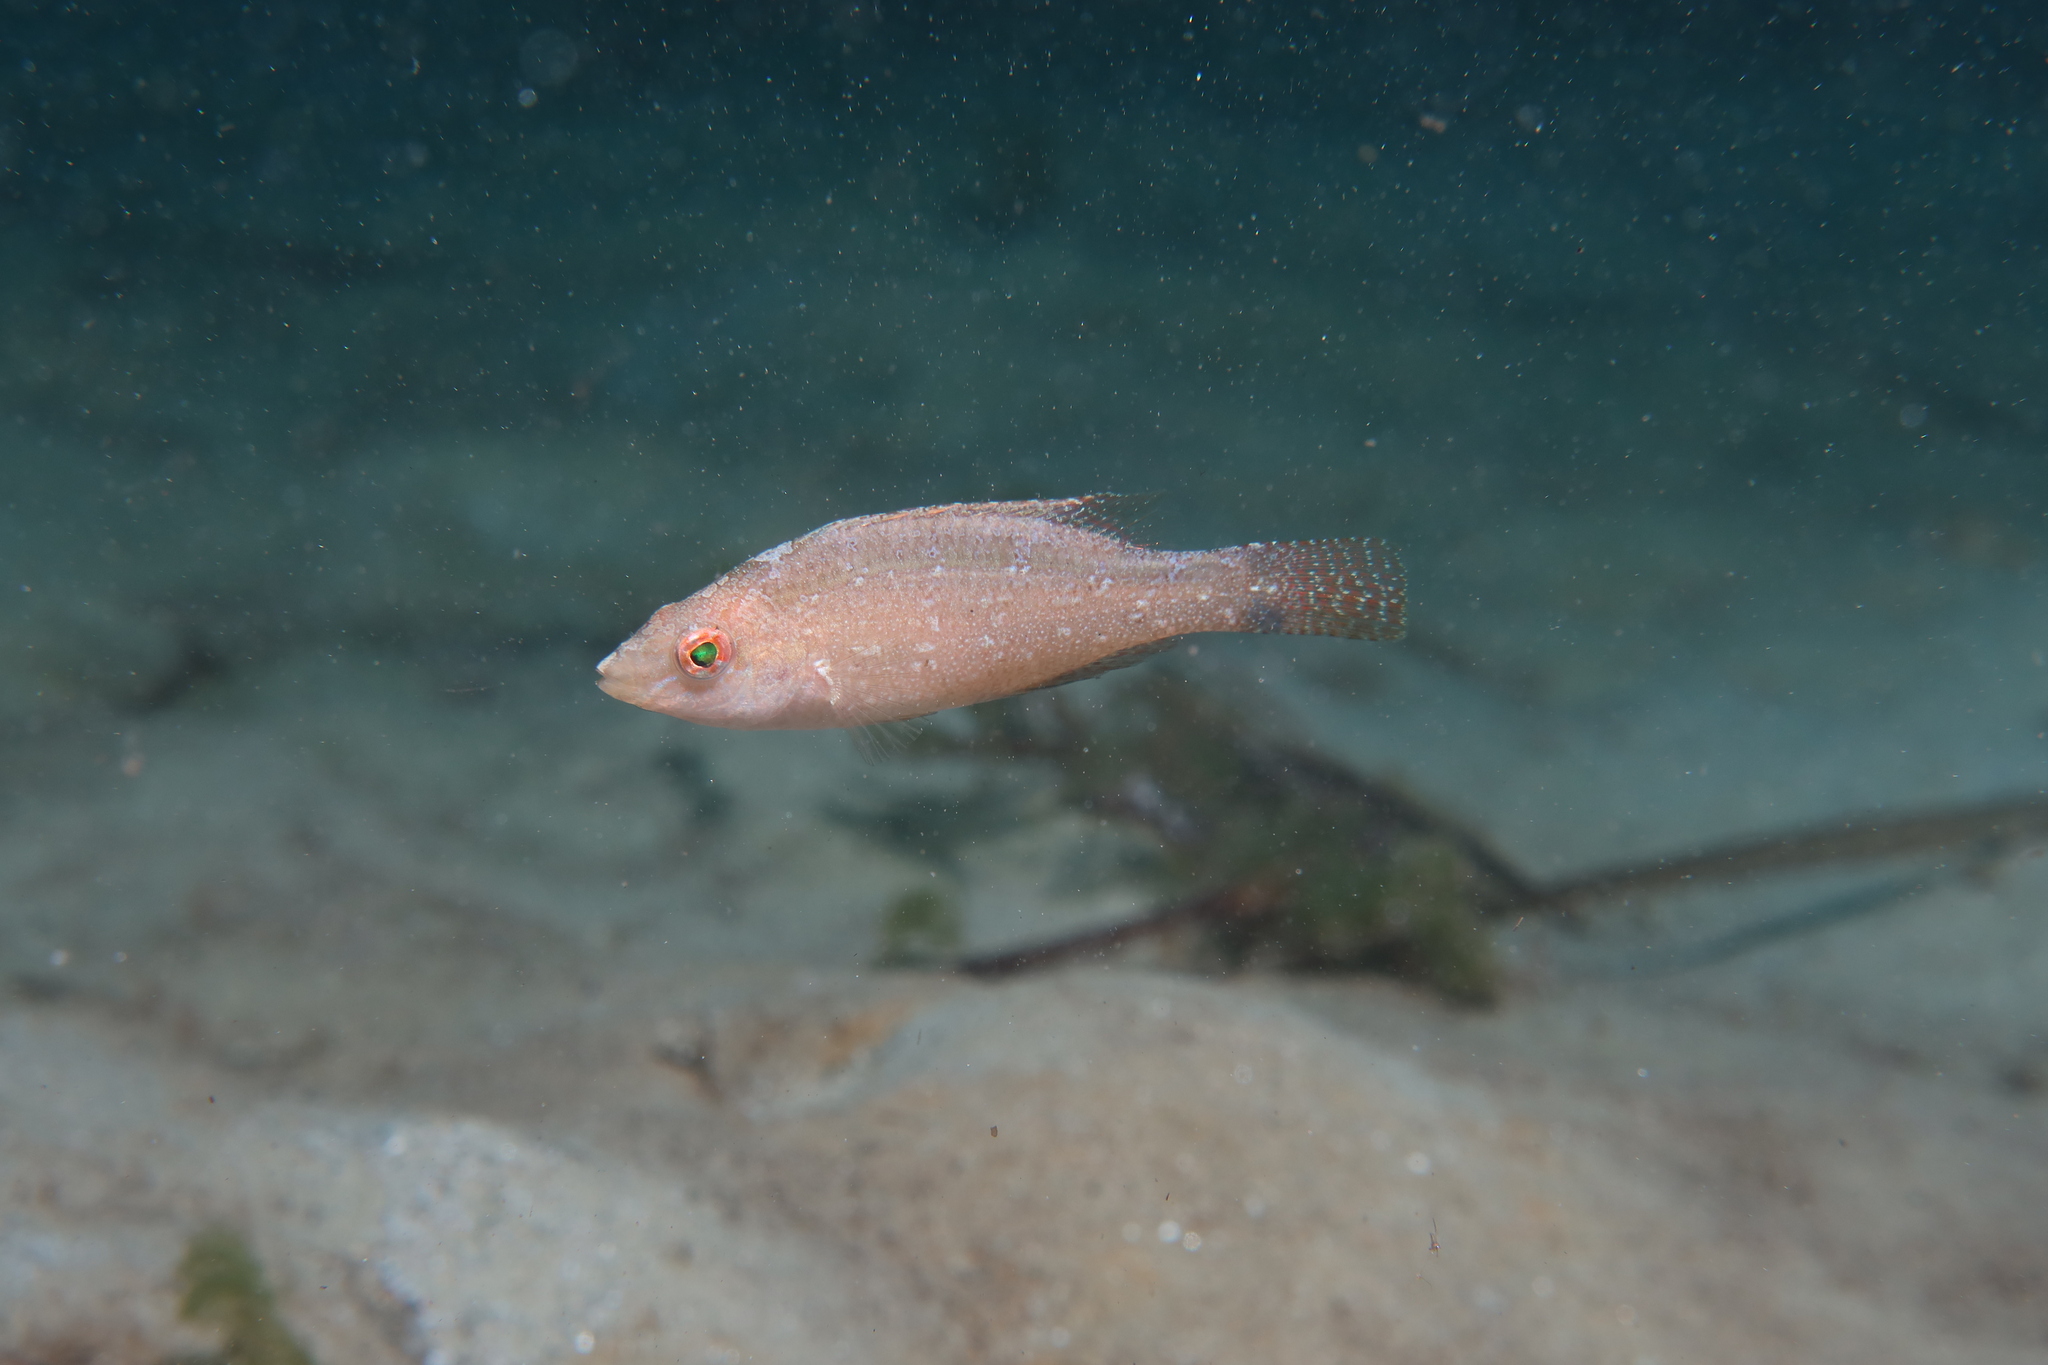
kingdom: Animalia
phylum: Chordata
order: Perciformes
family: Labridae
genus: Symphodus
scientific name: Symphodus cinereus
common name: Grey wrasse
